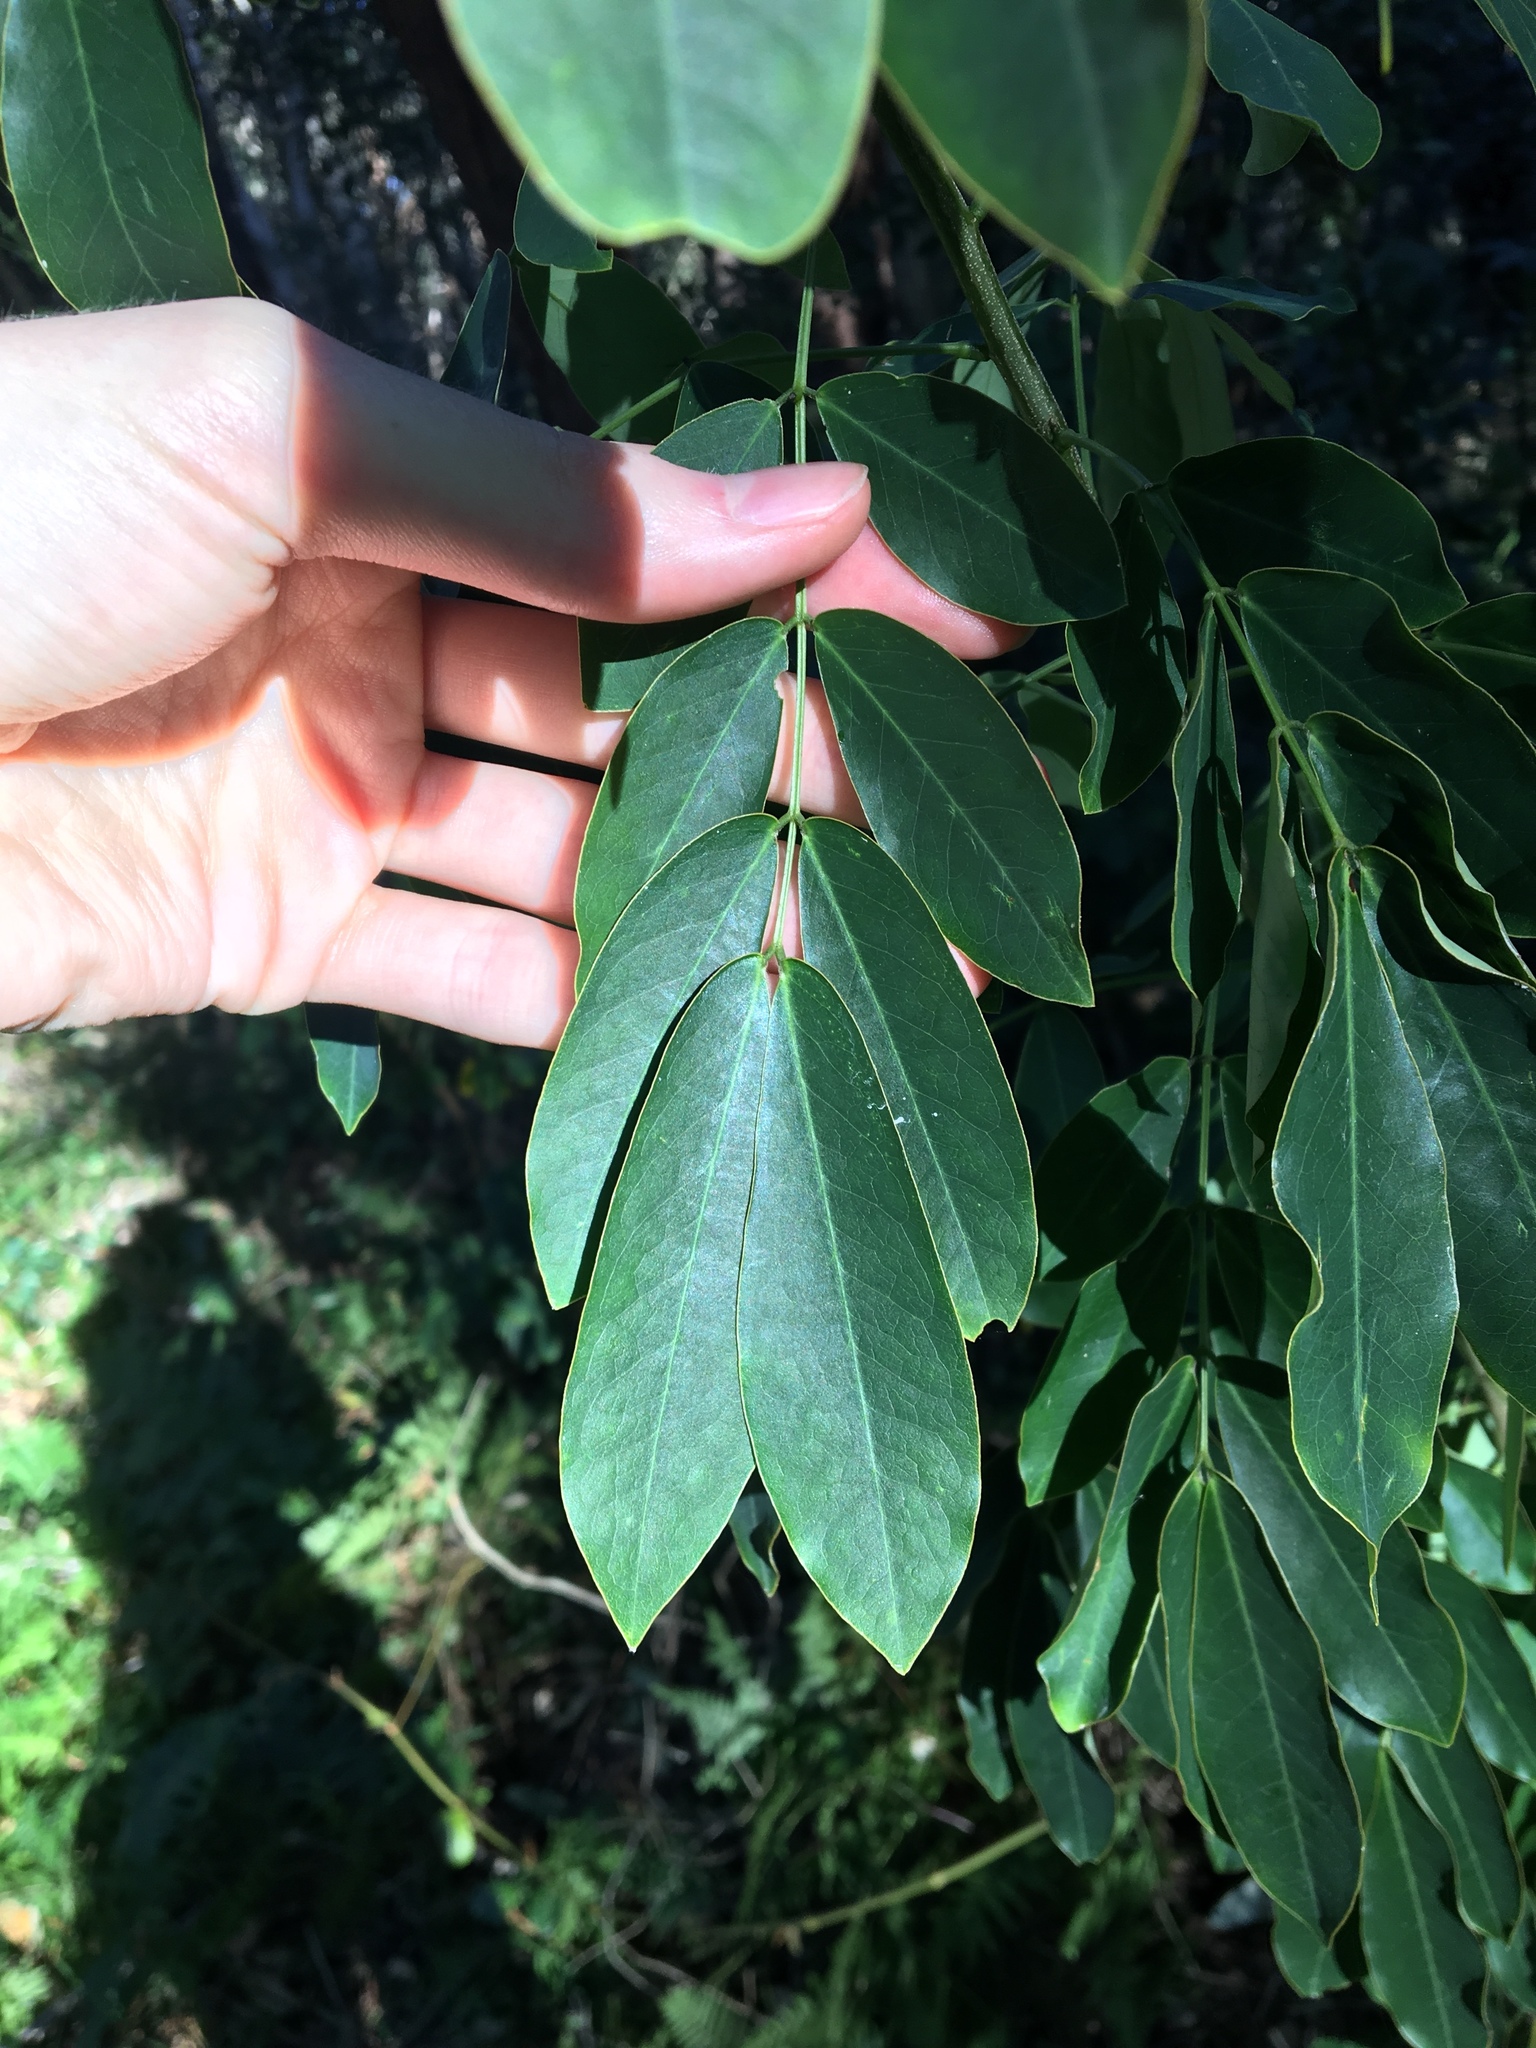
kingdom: Plantae
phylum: Tracheophyta
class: Magnoliopsida
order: Fabales
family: Fabaceae
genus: Senna
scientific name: Senna pendula
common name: Easter cassia
